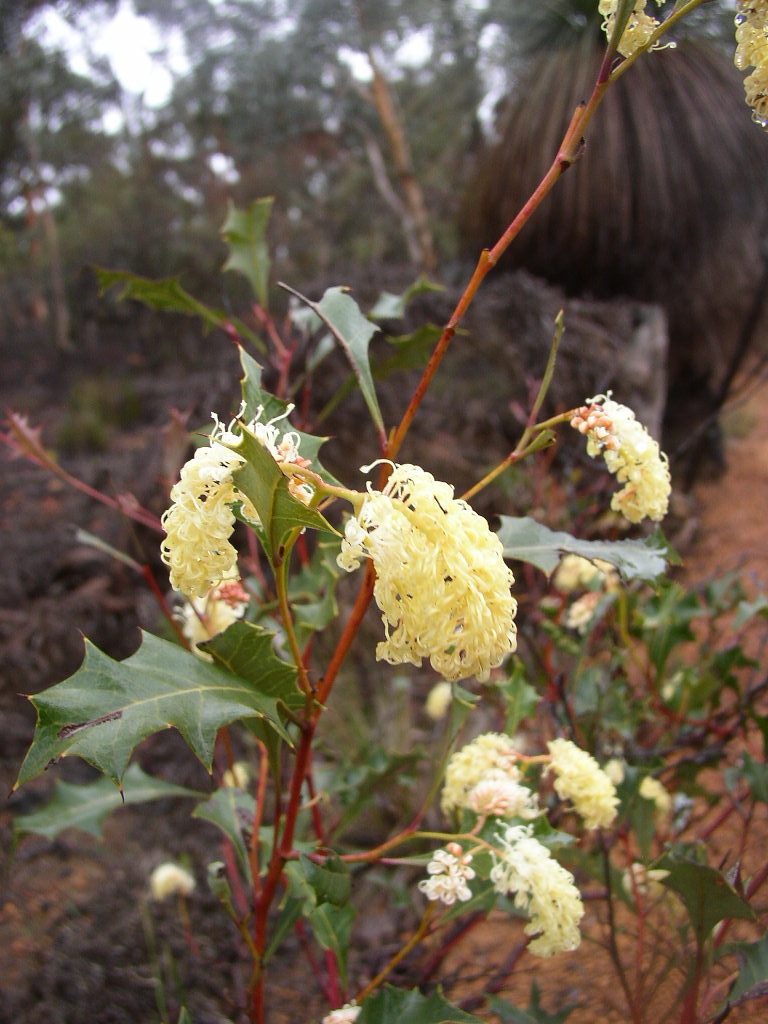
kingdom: Plantae
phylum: Tracheophyta
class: Magnoliopsida
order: Proteales
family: Proteaceae
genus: Grevillea
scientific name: Grevillea monticola
